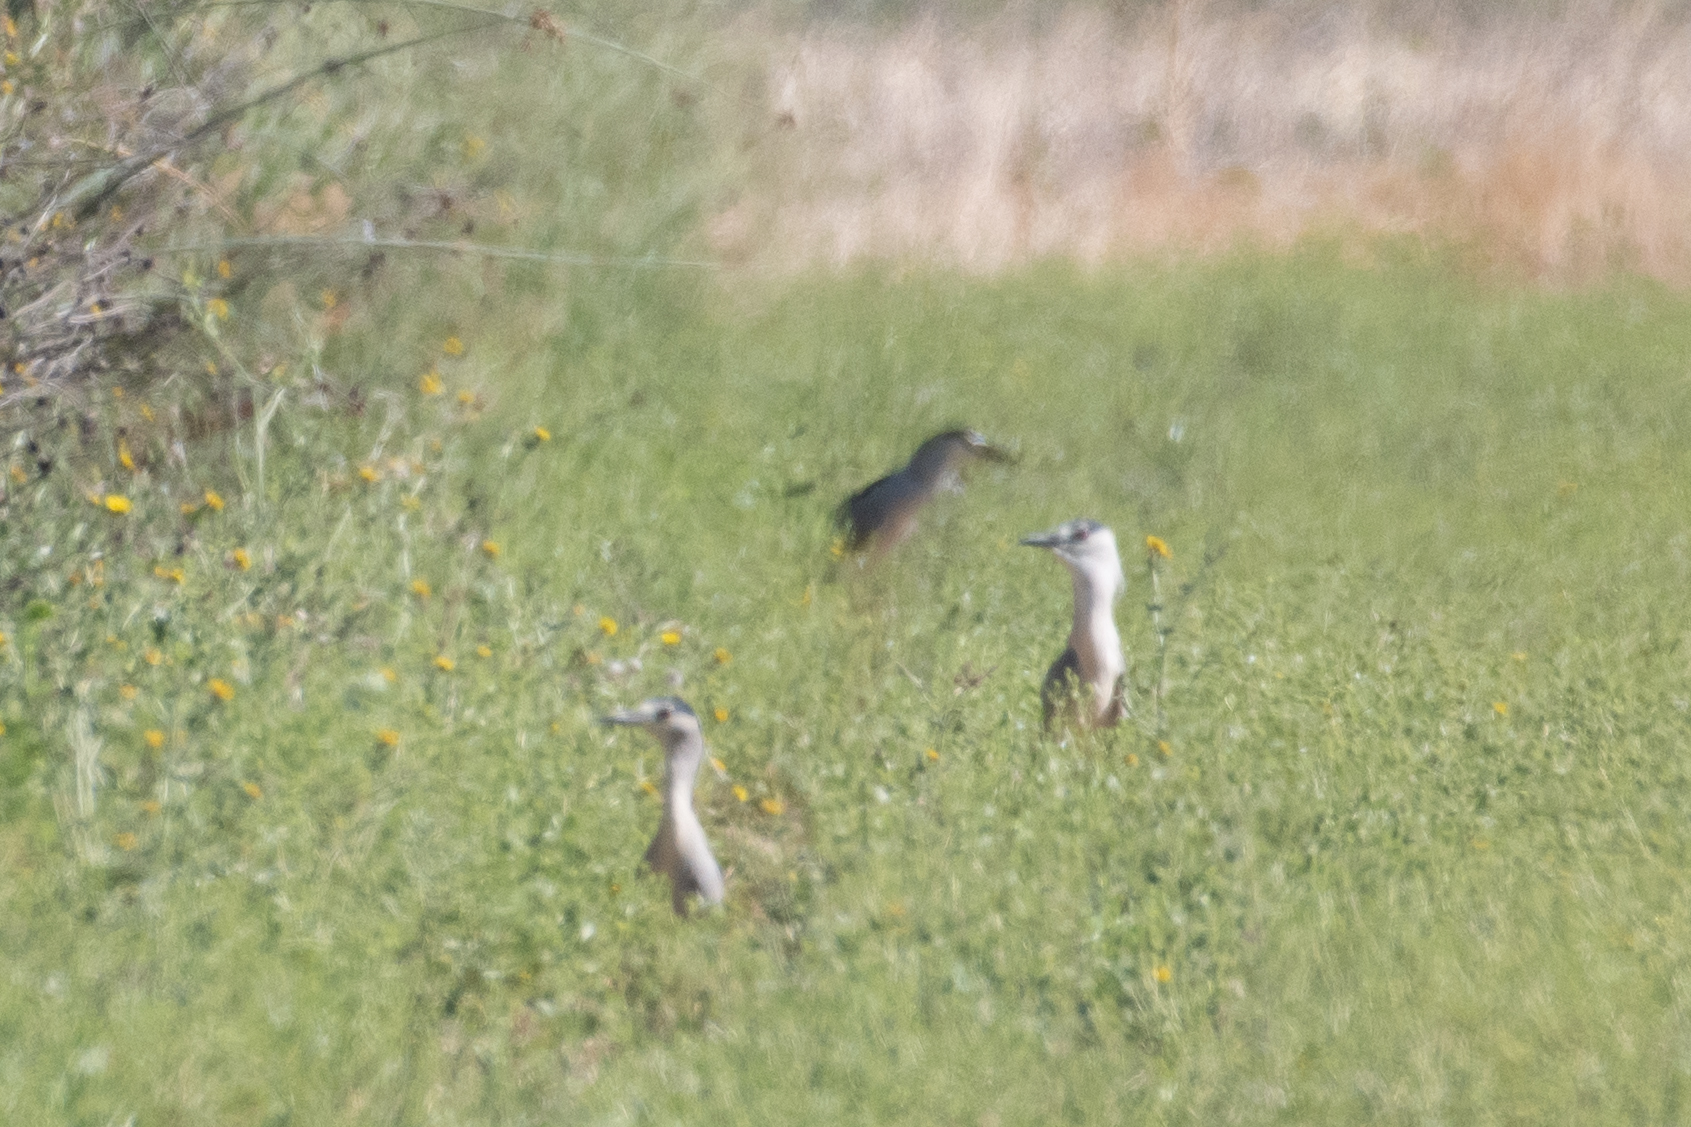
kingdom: Animalia
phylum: Chordata
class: Aves
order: Pelecaniformes
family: Ardeidae
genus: Nycticorax
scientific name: Nycticorax nycticorax
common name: Black-crowned night heron
